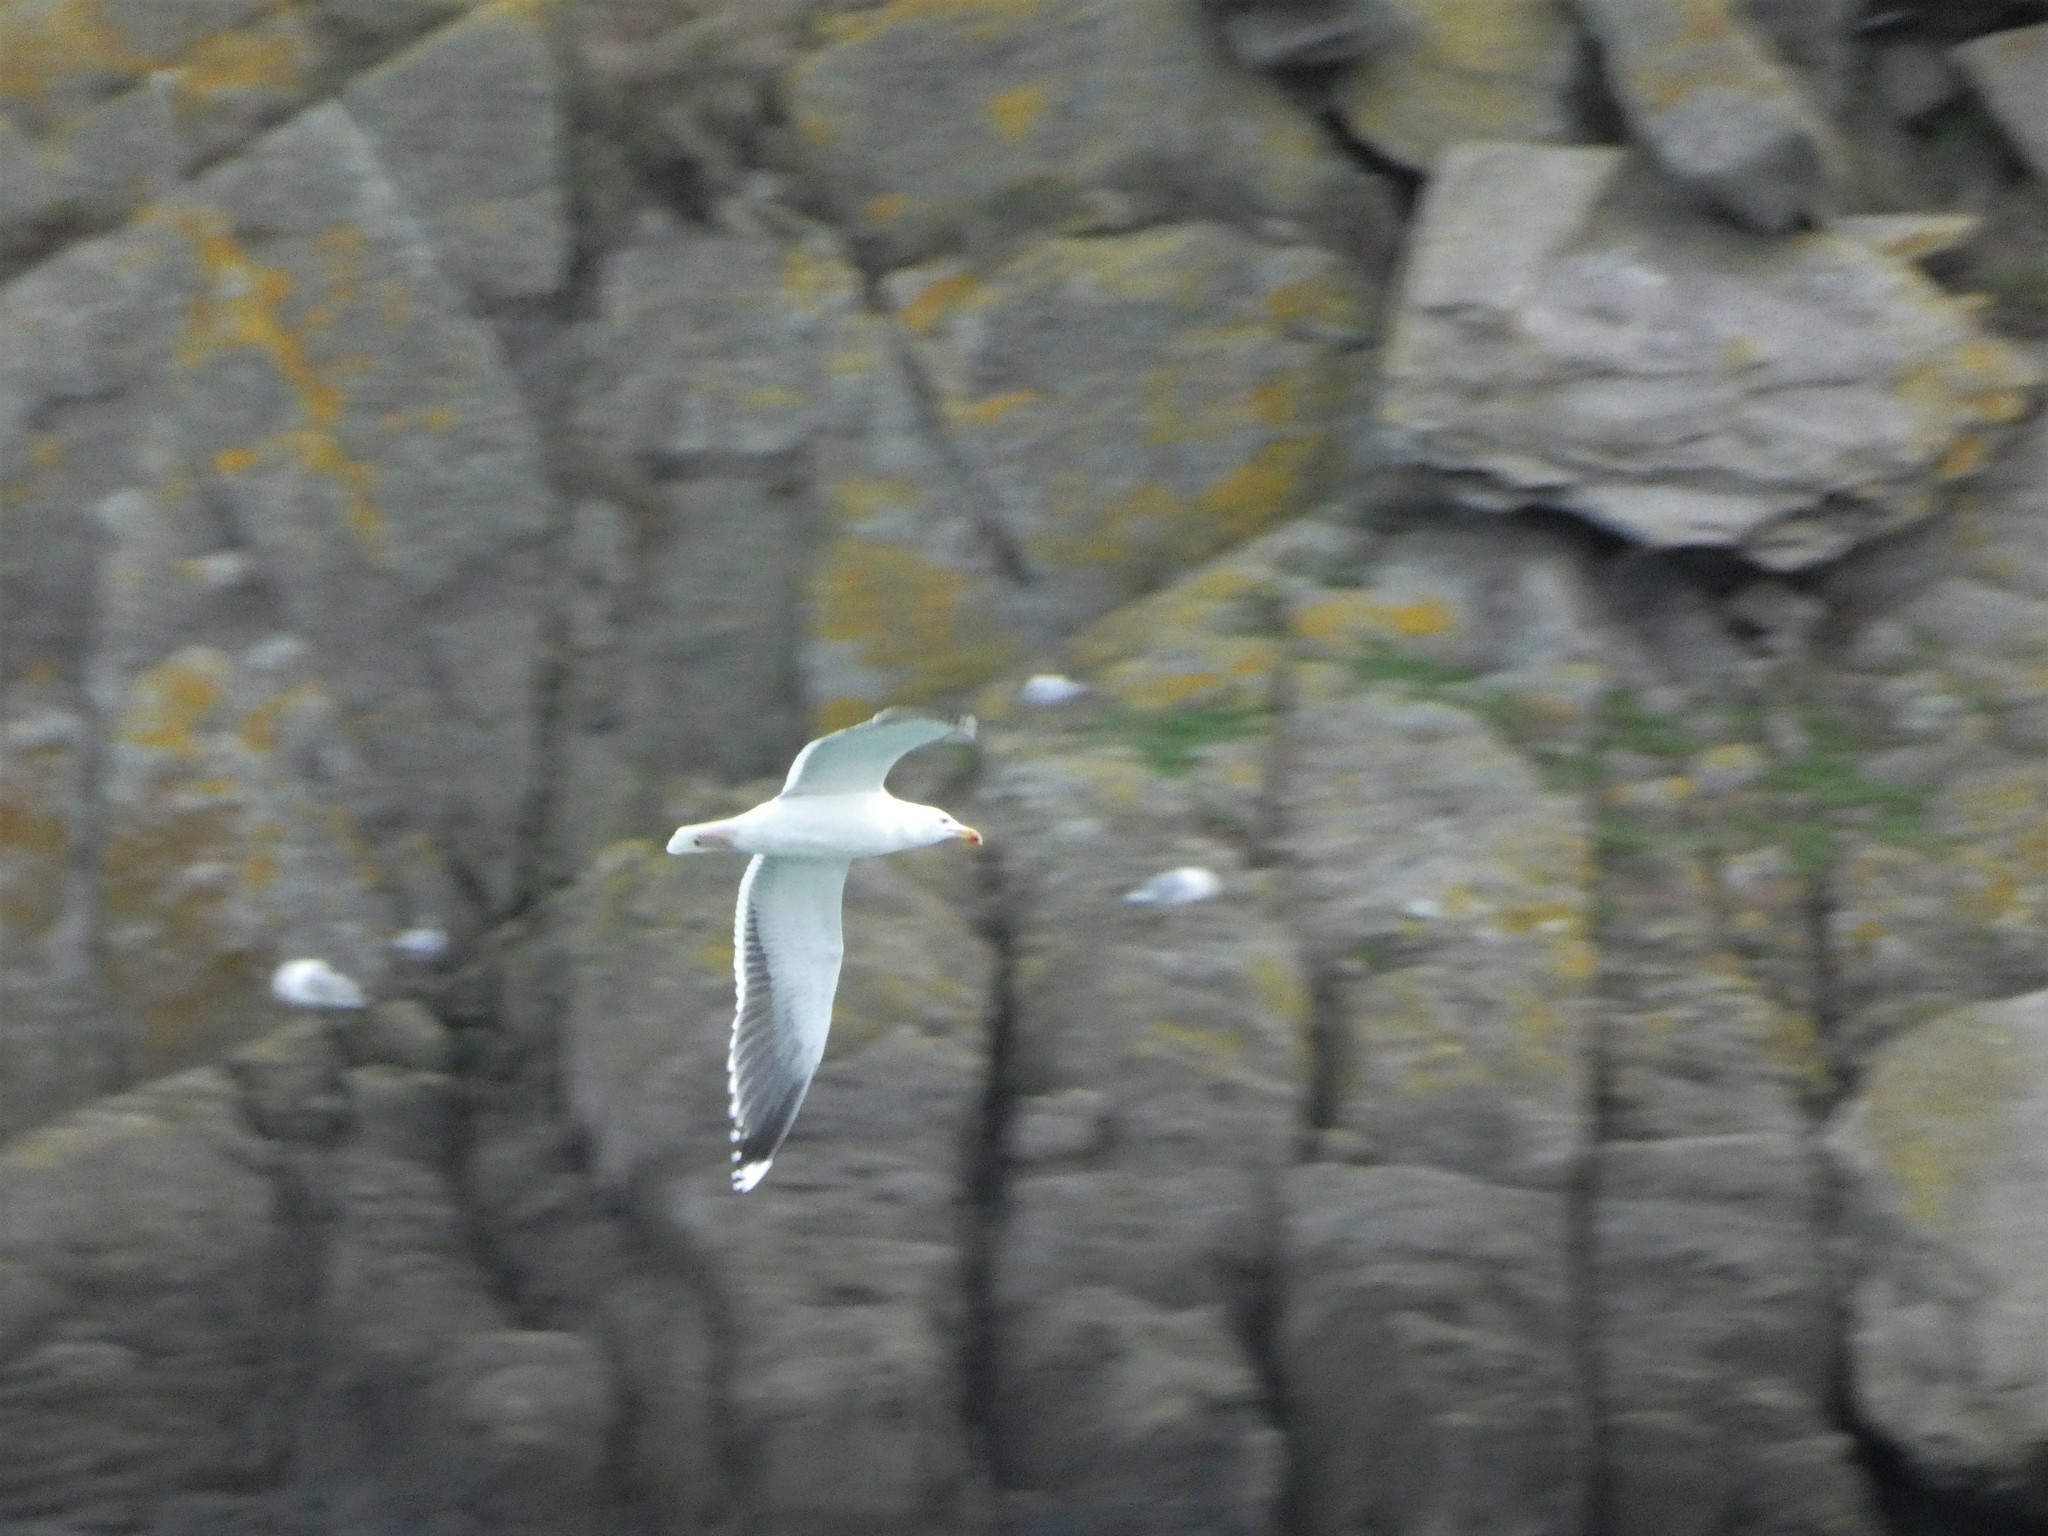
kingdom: Animalia
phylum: Chordata
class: Aves
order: Charadriiformes
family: Laridae
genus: Larus
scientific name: Larus marinus
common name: Great black-backed gull
